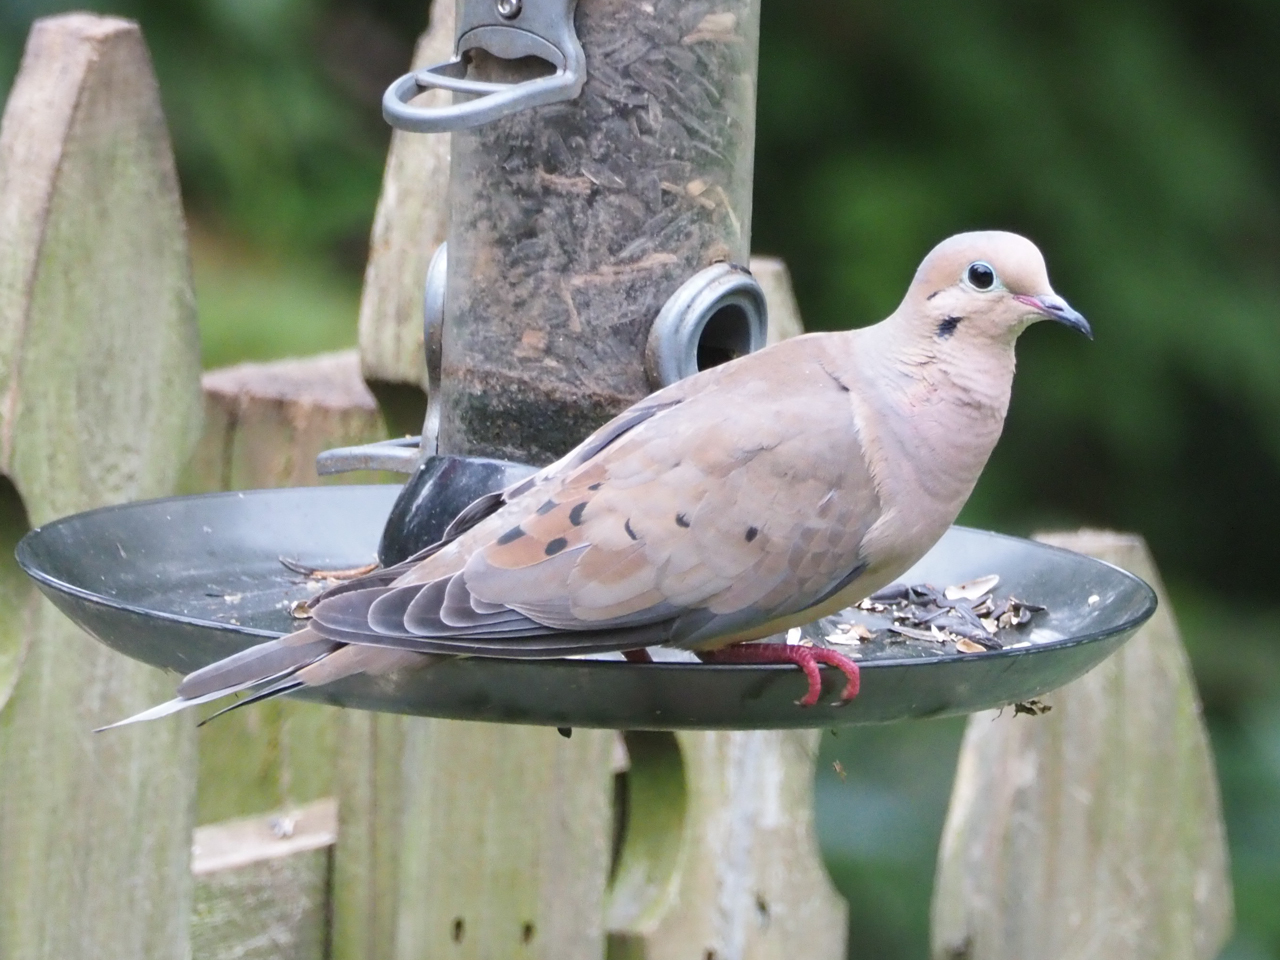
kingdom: Animalia
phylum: Chordata
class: Aves
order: Columbiformes
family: Columbidae
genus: Zenaida
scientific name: Zenaida macroura
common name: Mourning dove
